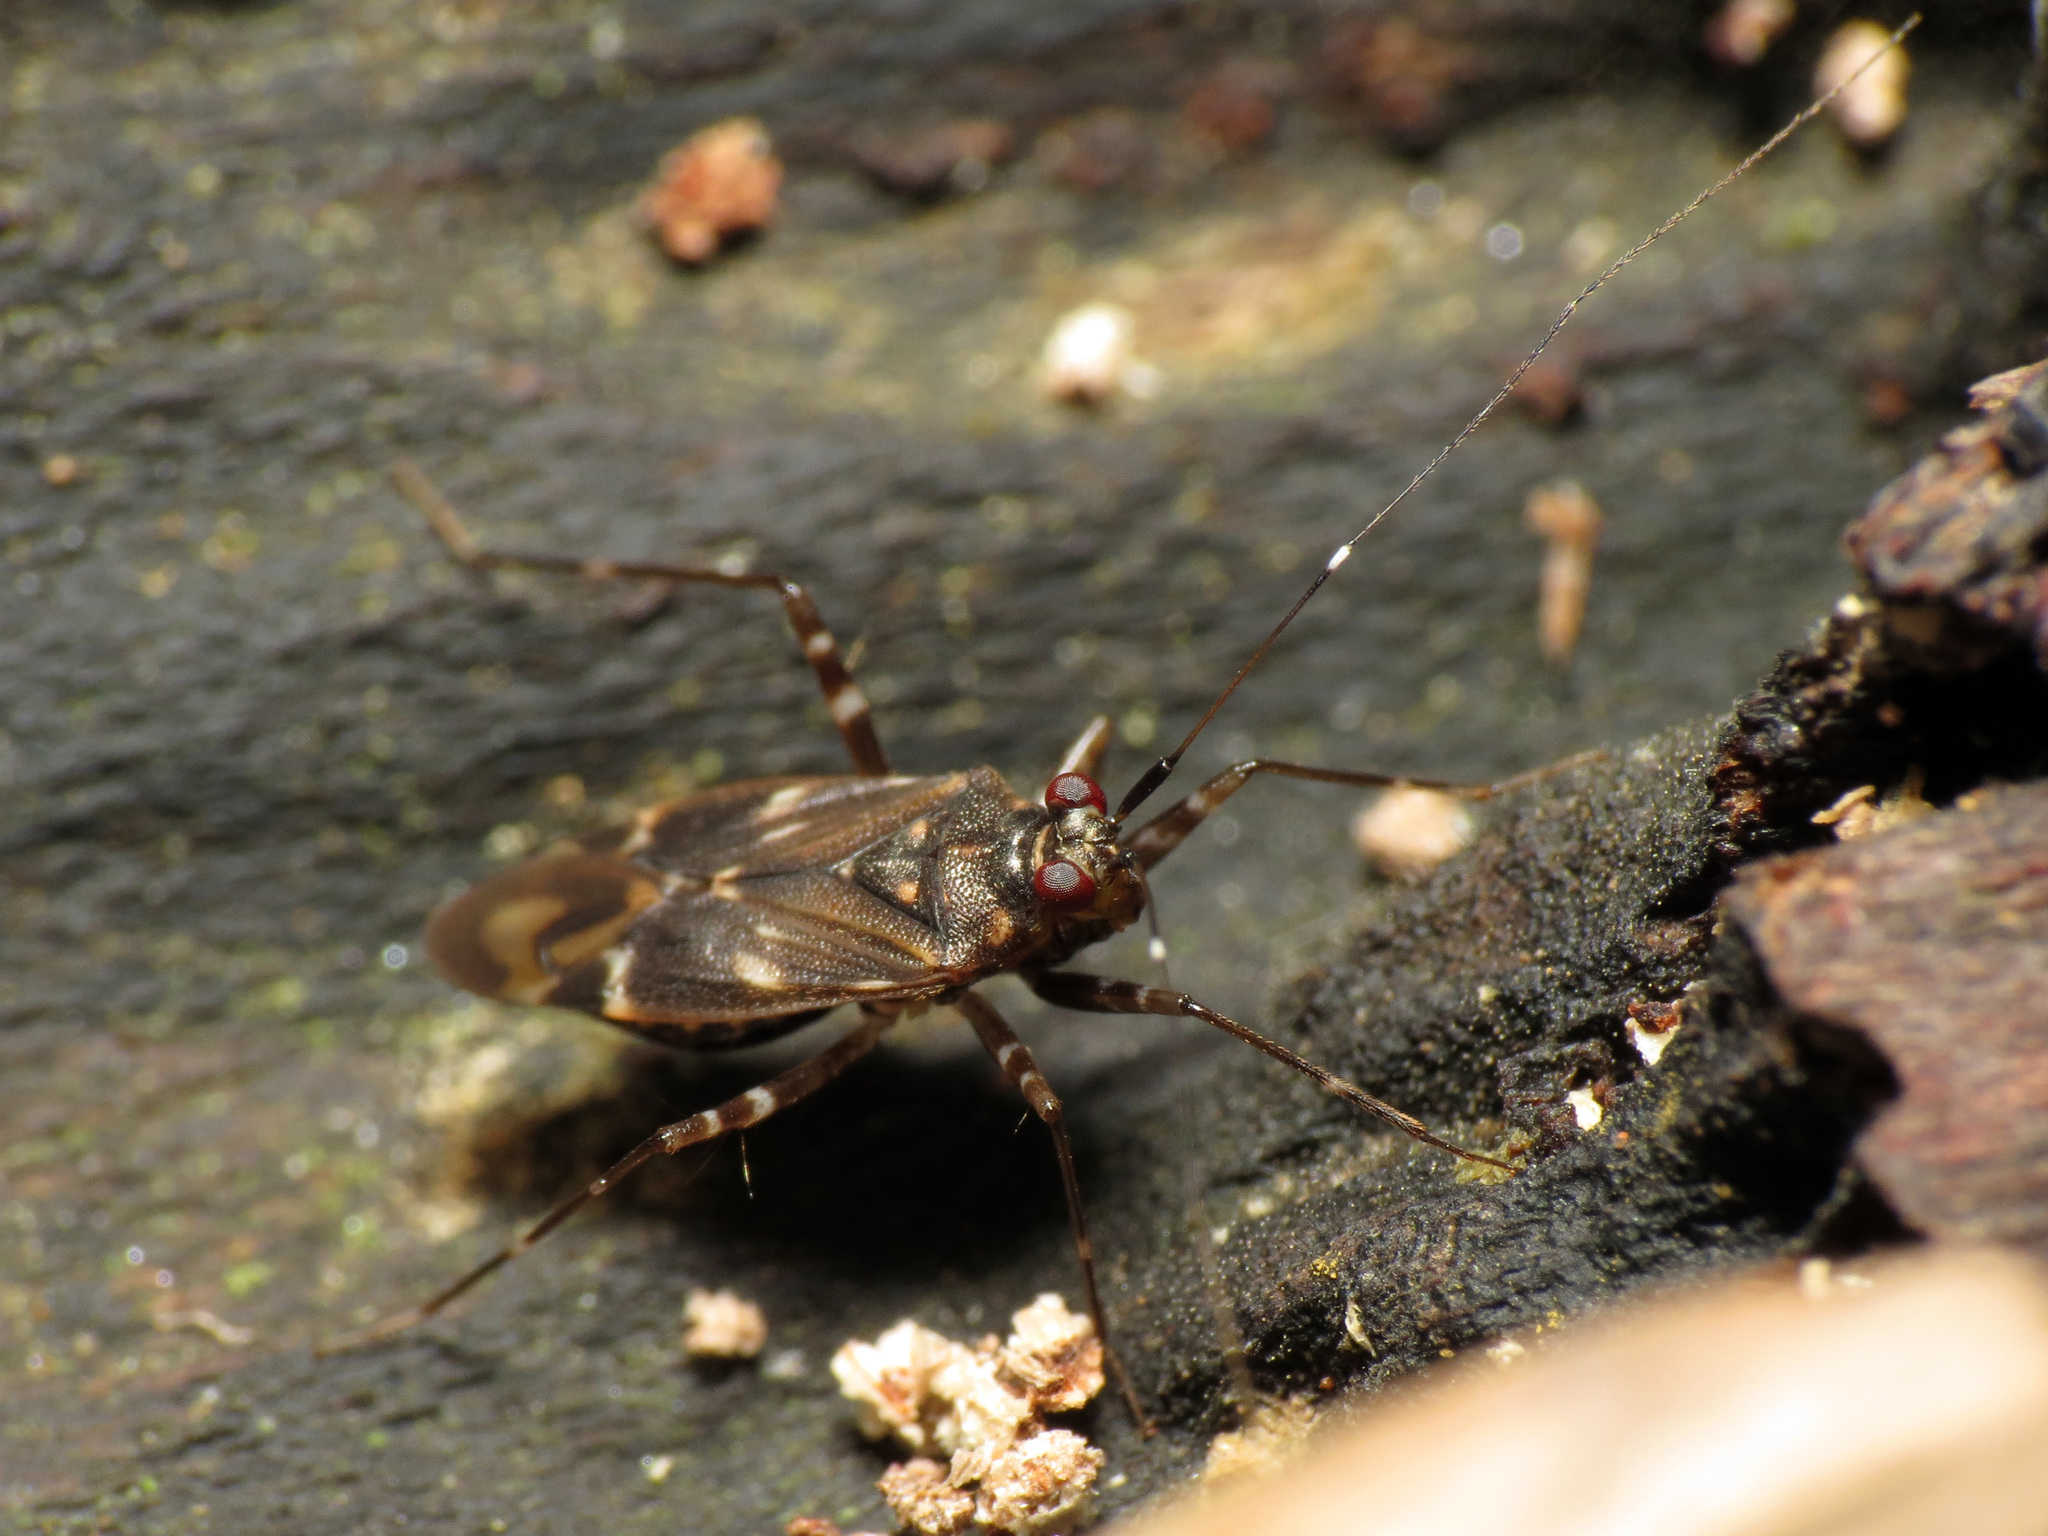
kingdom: Animalia
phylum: Arthropoda
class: Insecta
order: Hemiptera
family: Miridae
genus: Cylapus
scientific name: Cylapus tenuicornis
